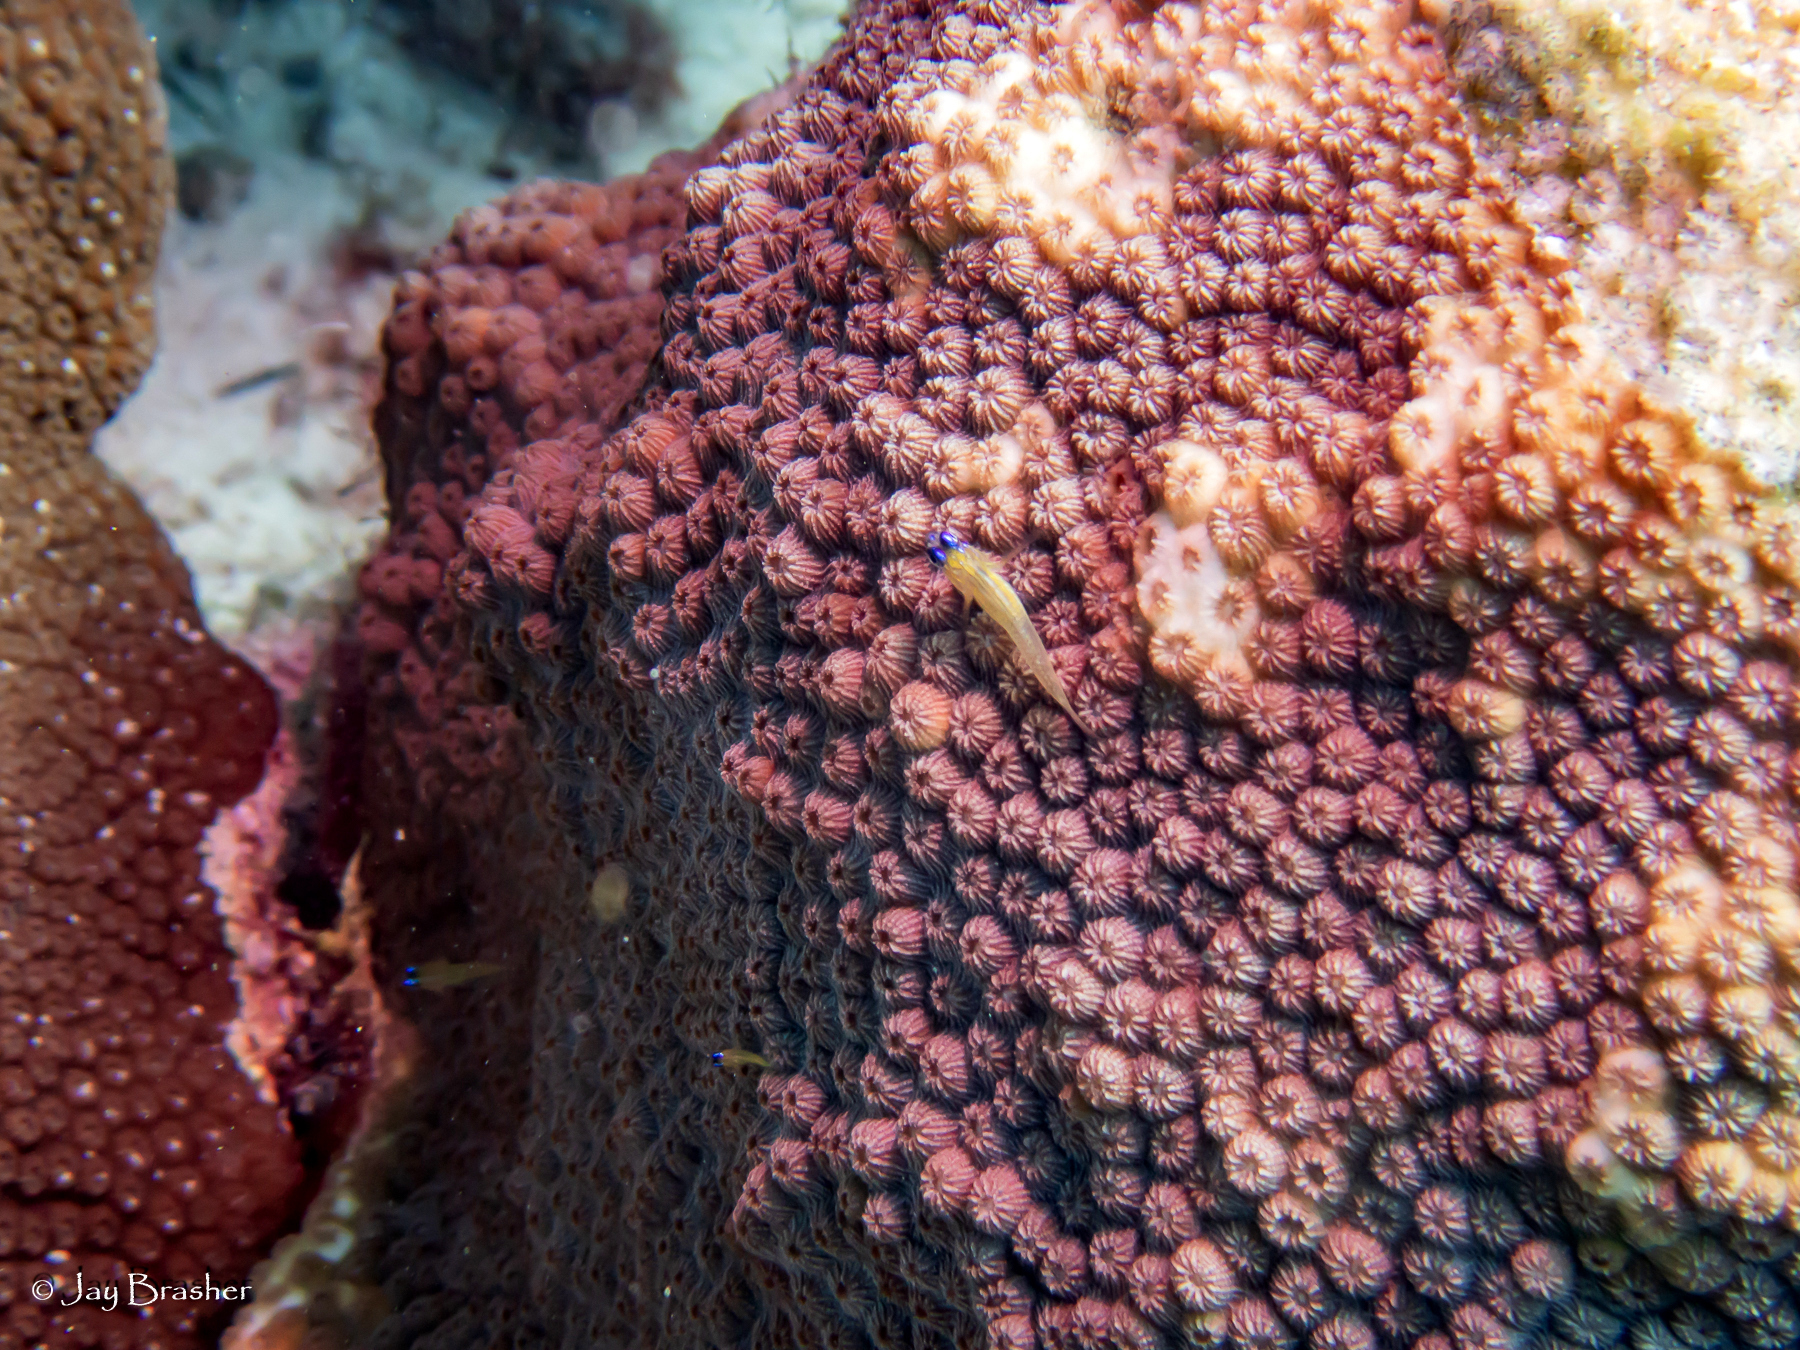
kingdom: Animalia
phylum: Chordata
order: Perciformes
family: Gobiidae
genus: Coryphopterus
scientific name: Coryphopterus lipernes
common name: Peppermint goby
